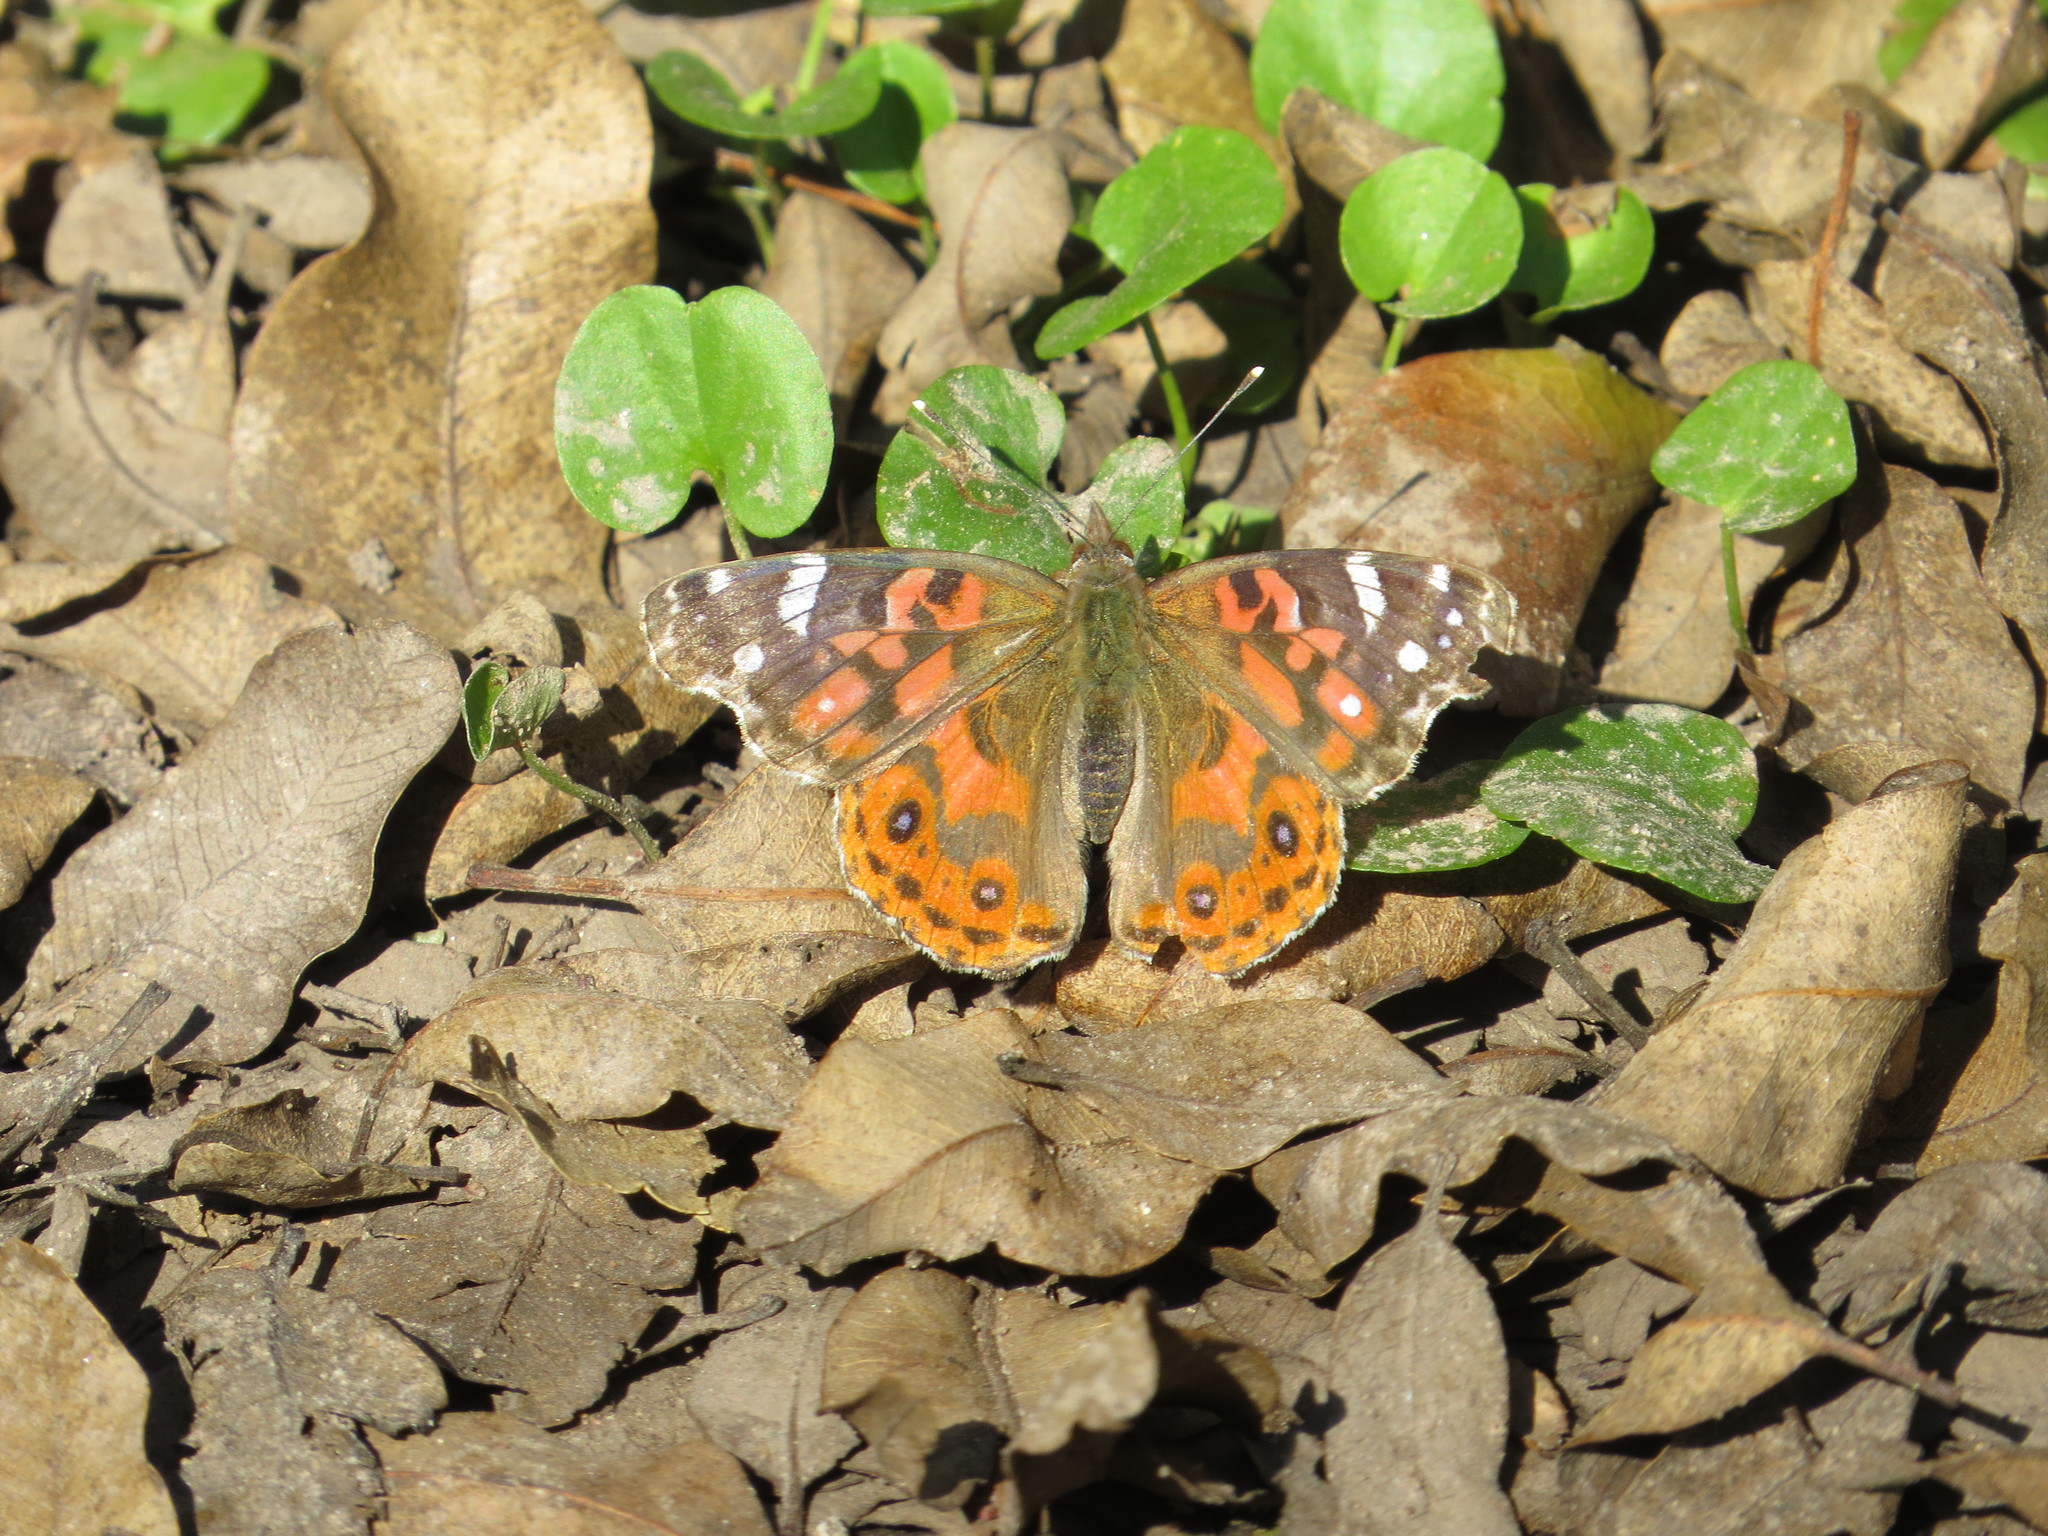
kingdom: Animalia
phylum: Arthropoda
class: Insecta
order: Lepidoptera
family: Nymphalidae
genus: Vanessa
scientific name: Vanessa braziliensis
